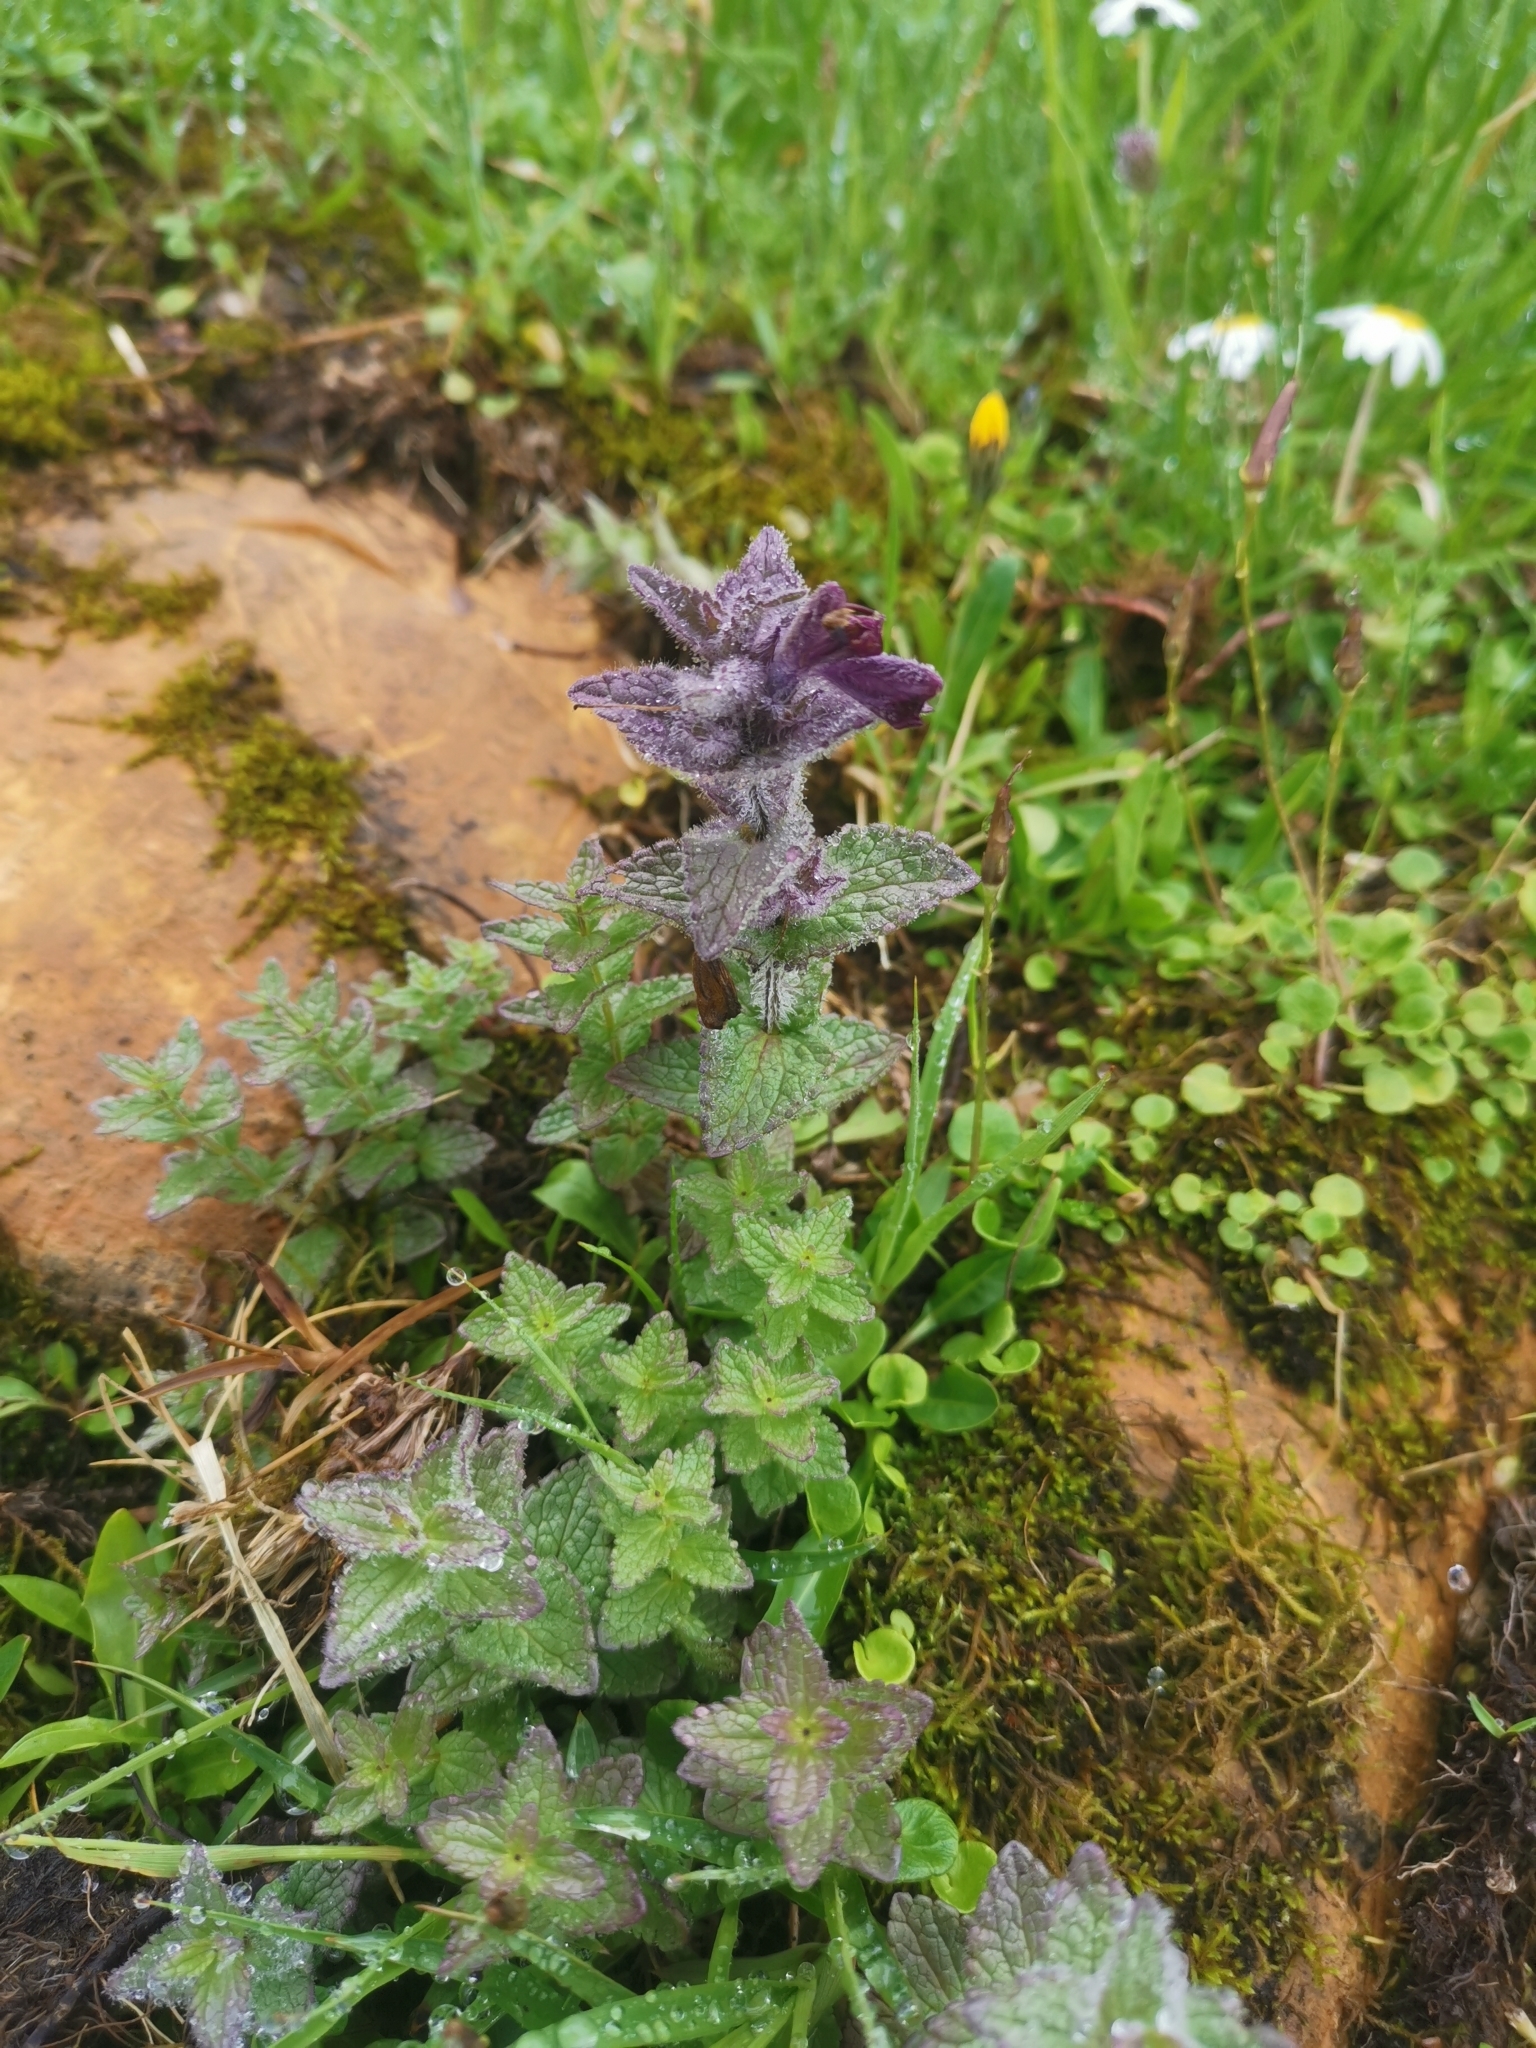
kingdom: Plantae
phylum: Tracheophyta
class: Magnoliopsida
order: Lamiales
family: Orobanchaceae
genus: Bartsia
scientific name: Bartsia alpina
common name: Alpine bartsia
